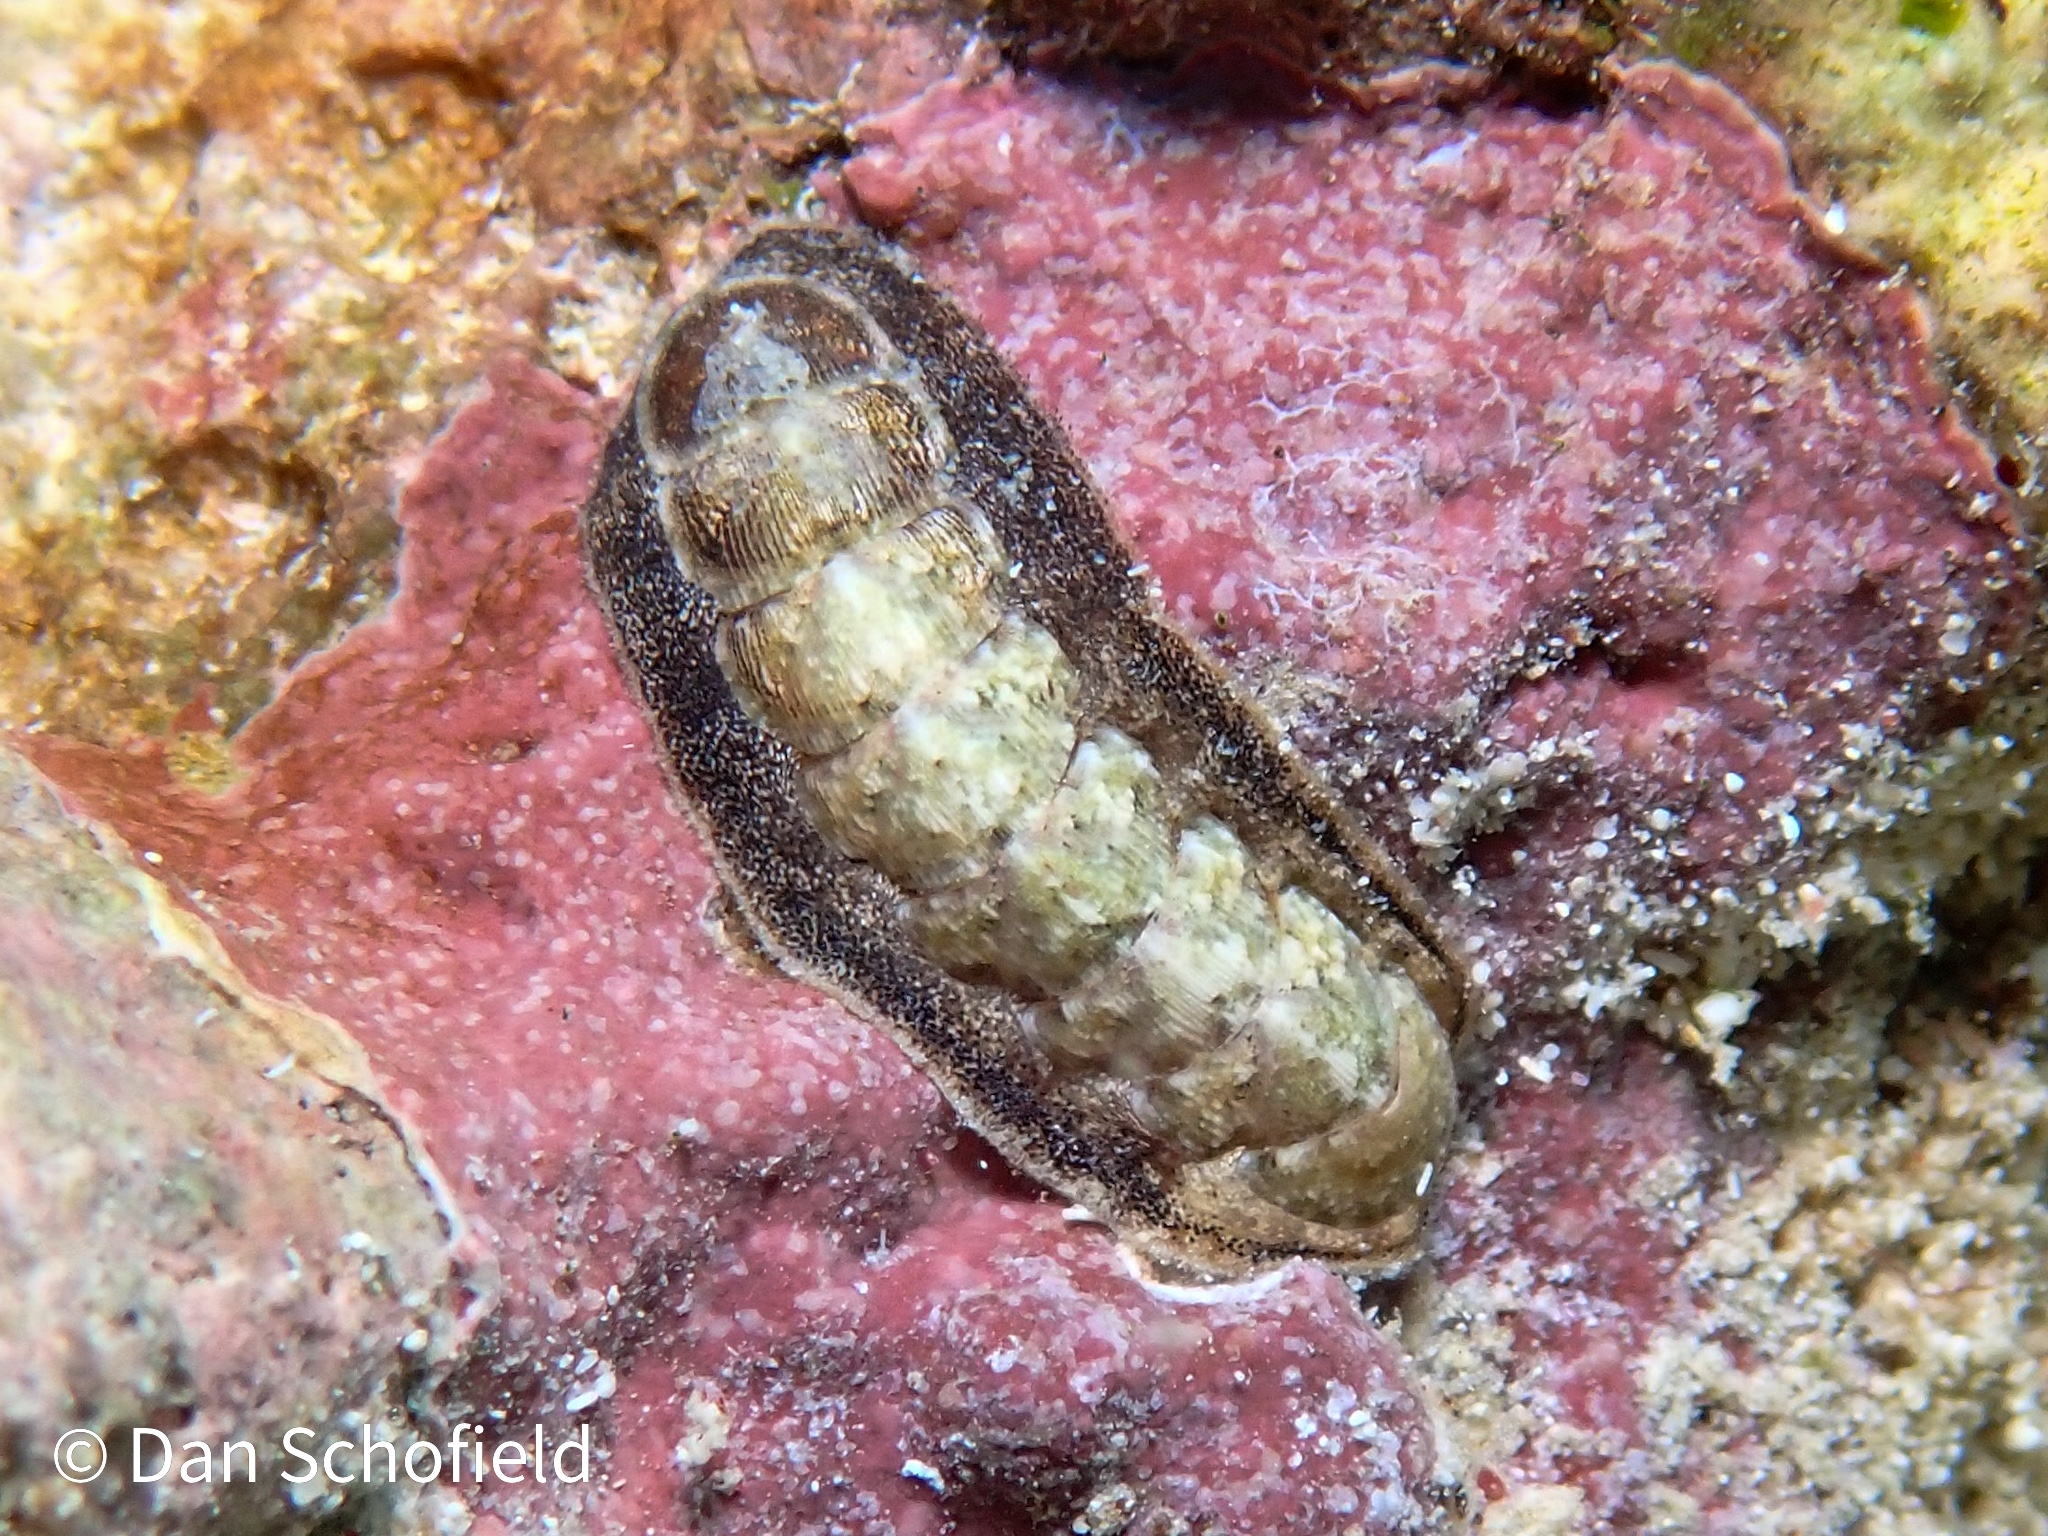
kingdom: Animalia
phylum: Mollusca
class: Polyplacophora
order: Chitonida
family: Ischnochitonidae
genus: Stenoplax
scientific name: Stenoplax purpurascens
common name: Caribbean slender chiton
